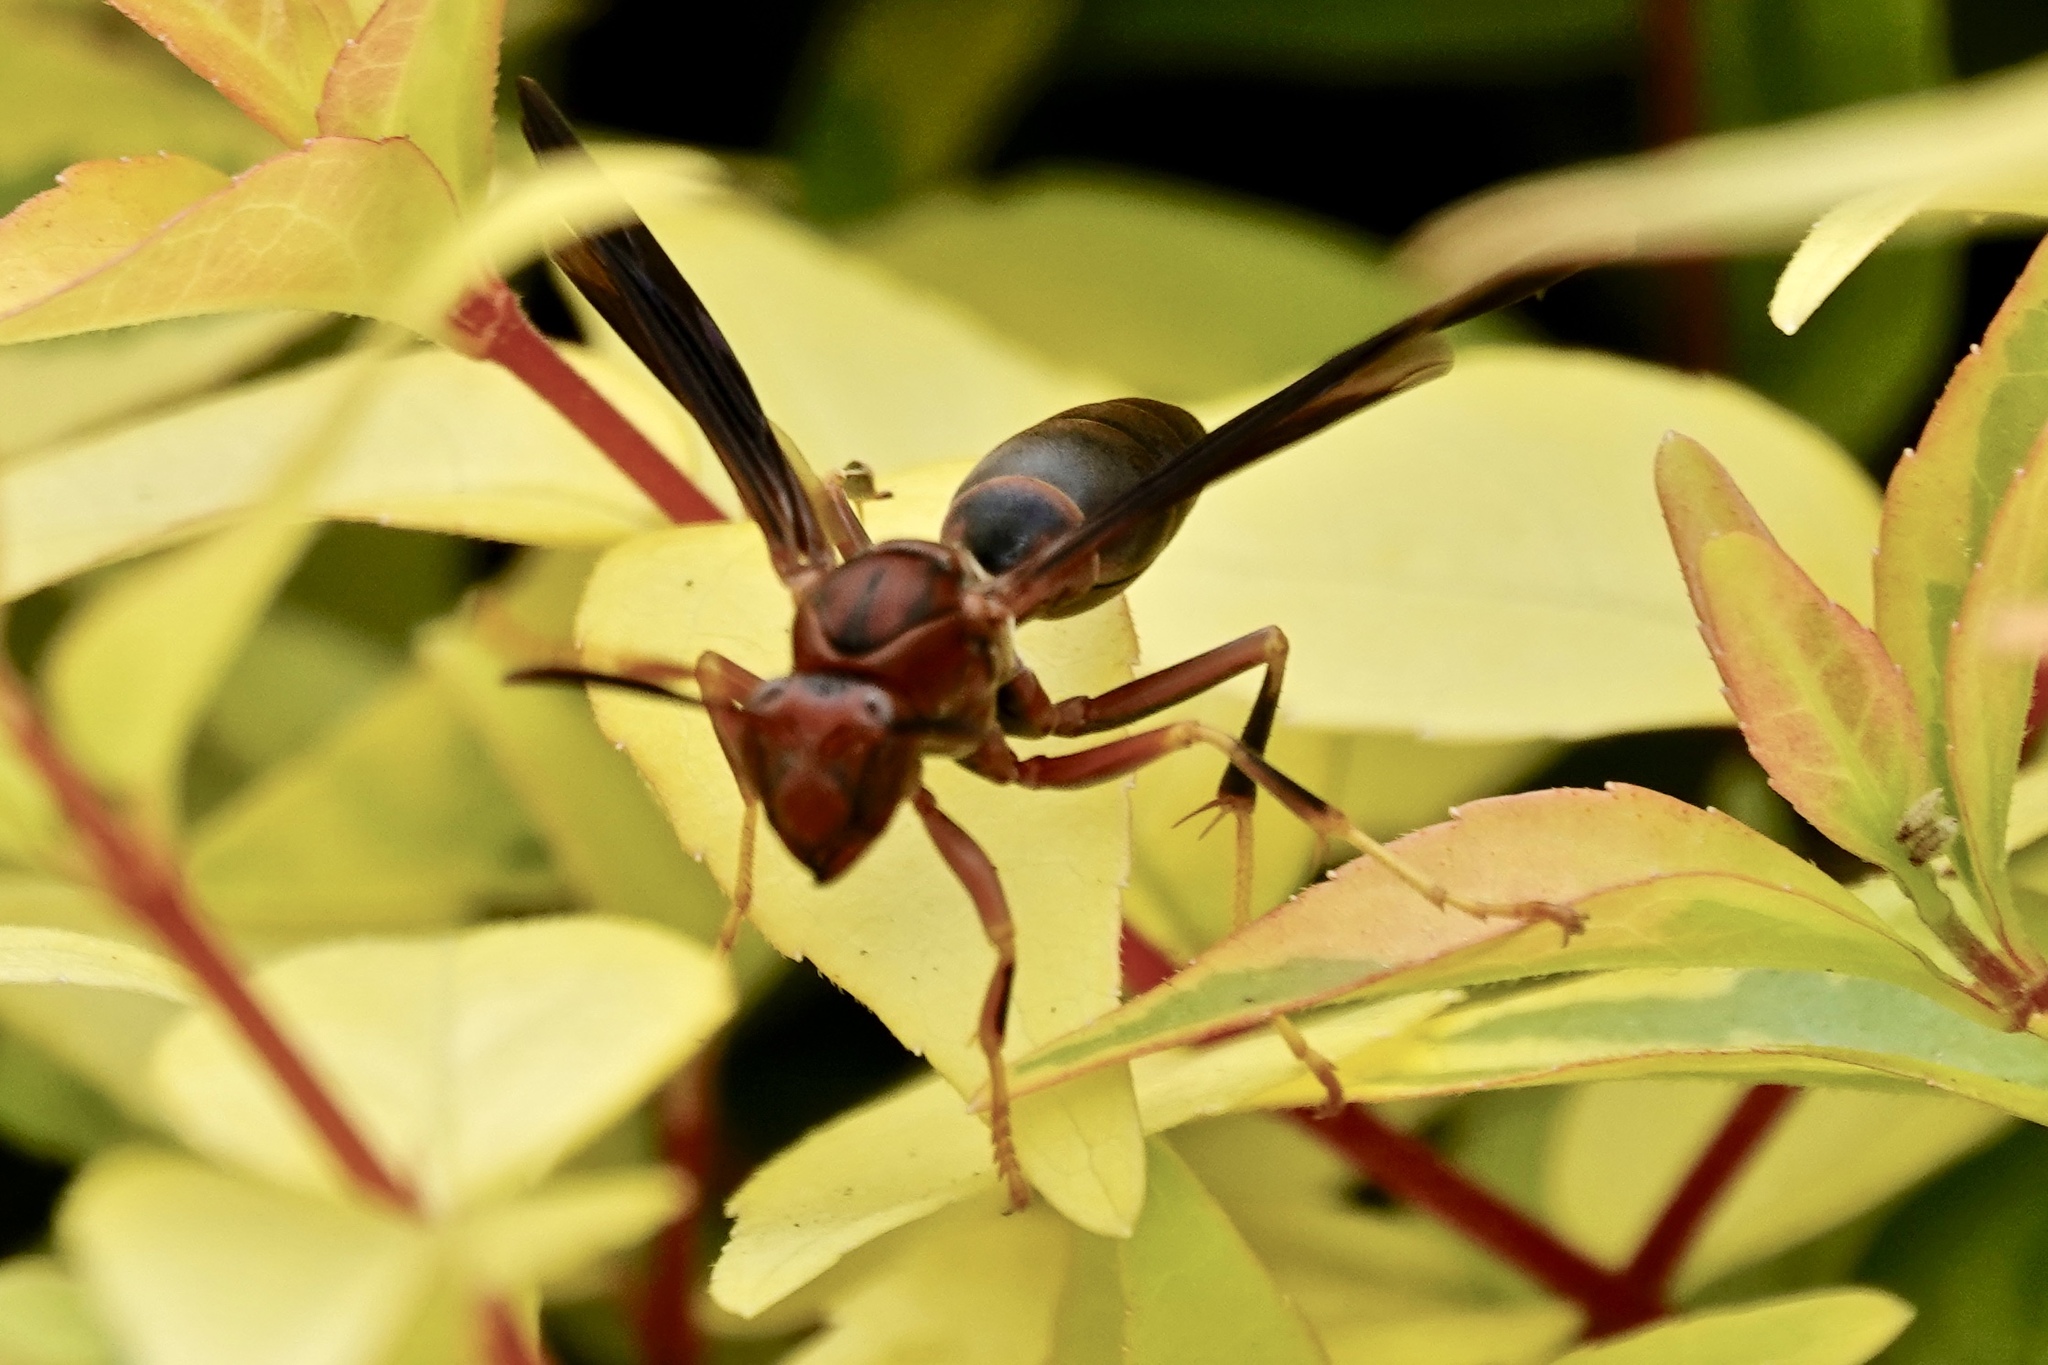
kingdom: Animalia
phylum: Arthropoda
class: Insecta
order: Hymenoptera
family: Eumenidae
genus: Polistes
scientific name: Polistes metricus
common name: Metric paper wasp
